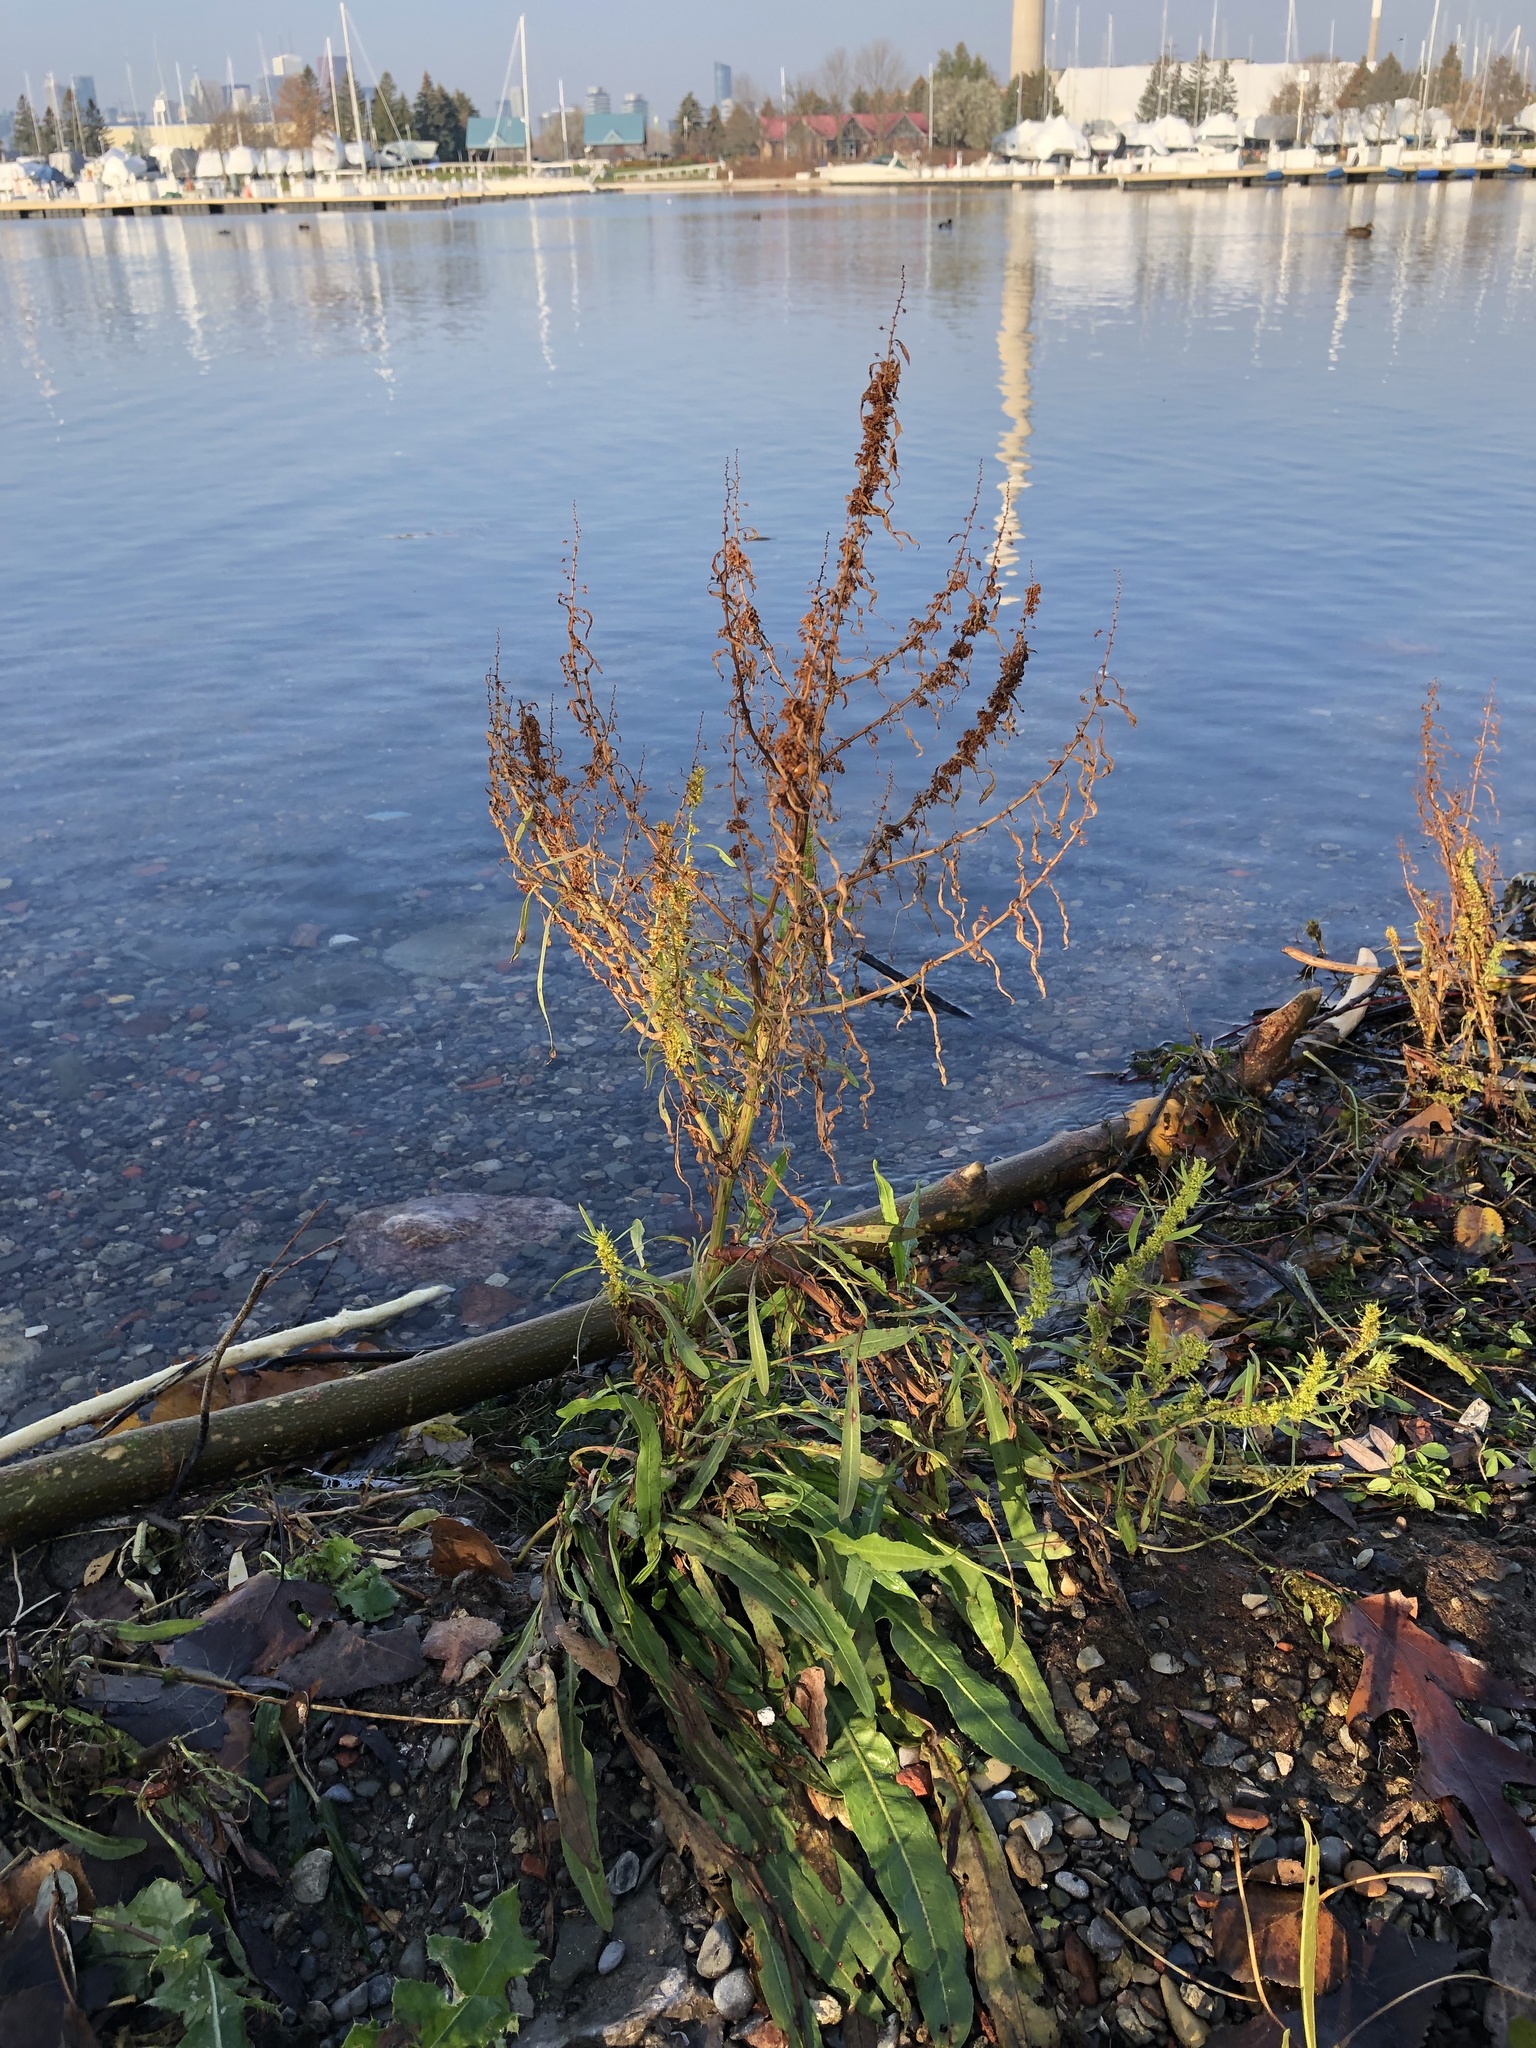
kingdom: Plantae
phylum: Tracheophyta
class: Magnoliopsida
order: Caryophyllales
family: Polygonaceae
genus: Rumex
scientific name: Rumex crispus
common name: Curled dock
